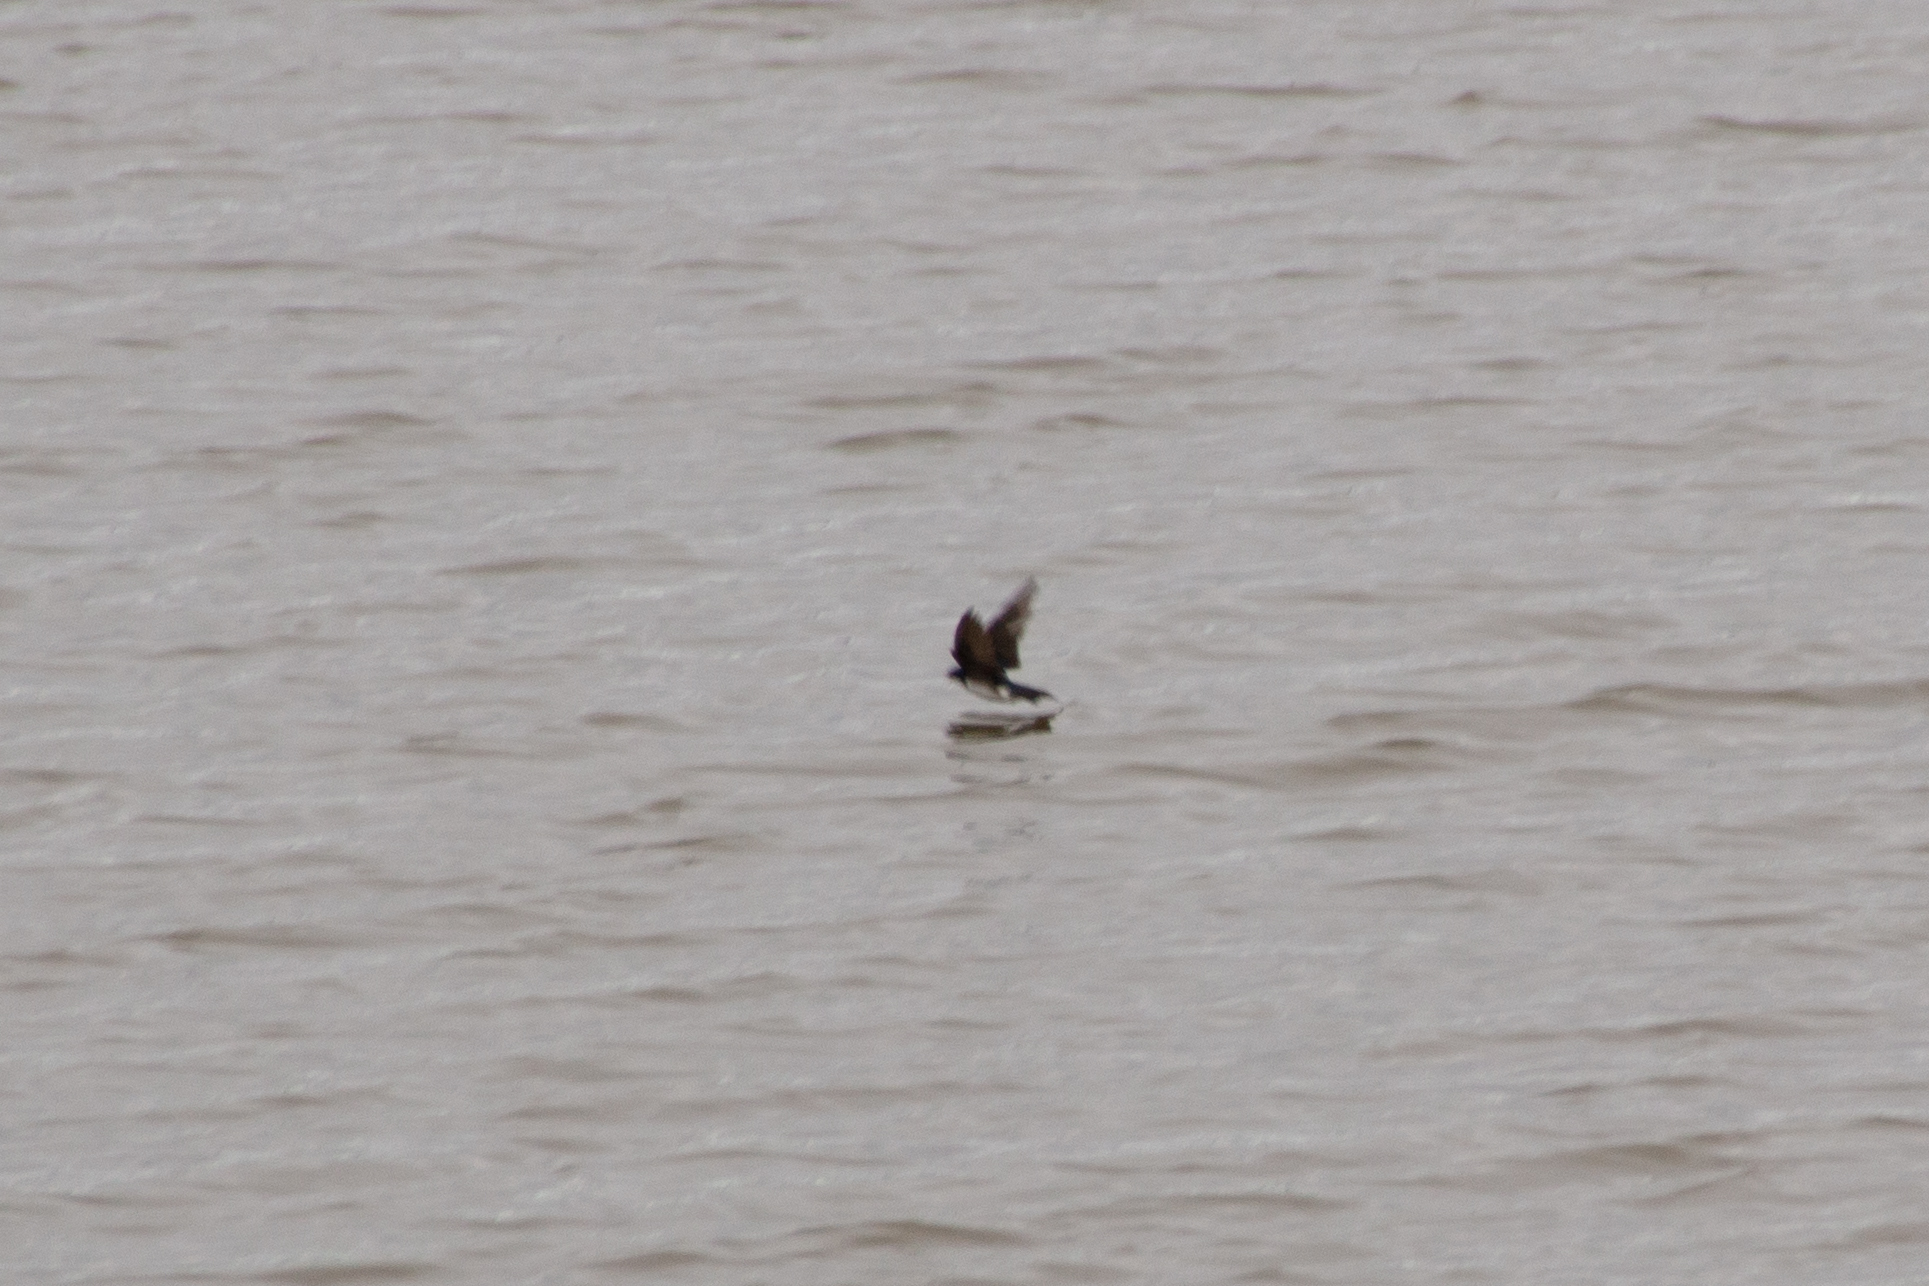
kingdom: Animalia
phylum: Chordata
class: Aves
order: Passeriformes
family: Hirundinidae
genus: Tachycineta
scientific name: Tachycineta bicolor
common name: Tree swallow
